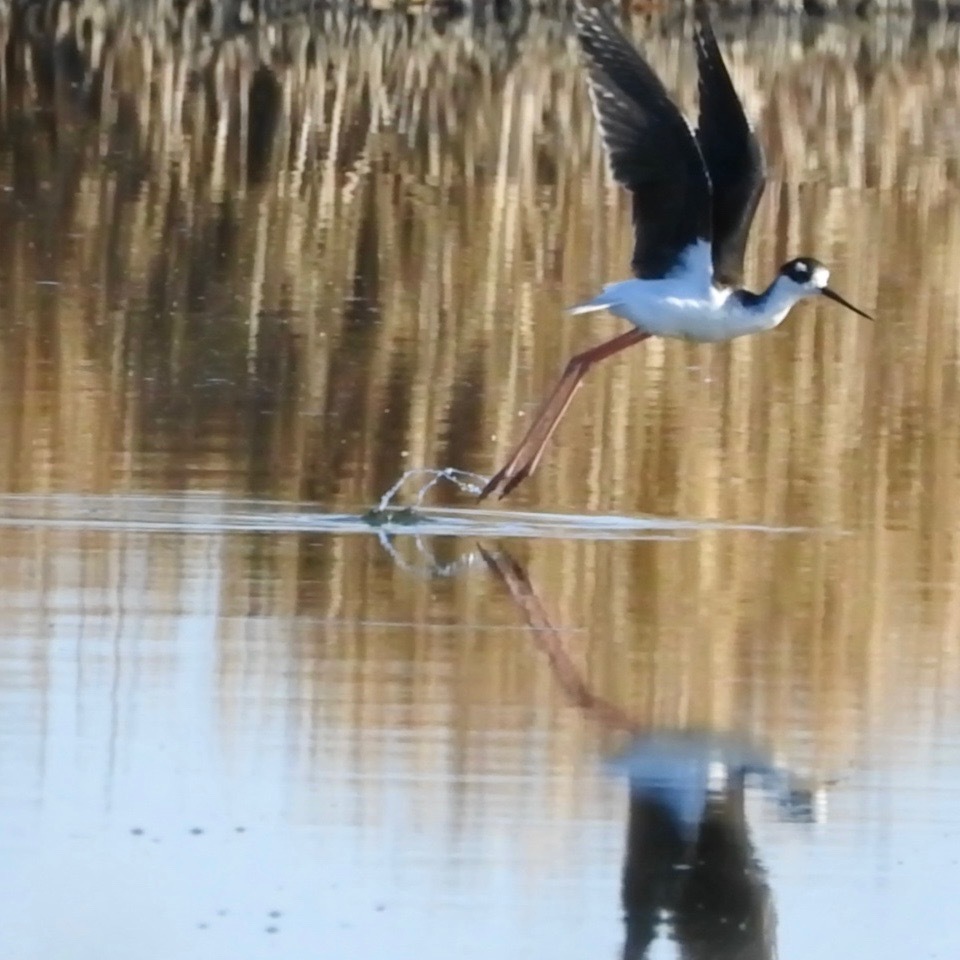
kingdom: Animalia
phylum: Chordata
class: Aves
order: Charadriiformes
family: Recurvirostridae
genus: Himantopus
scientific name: Himantopus mexicanus
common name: Black-necked stilt
